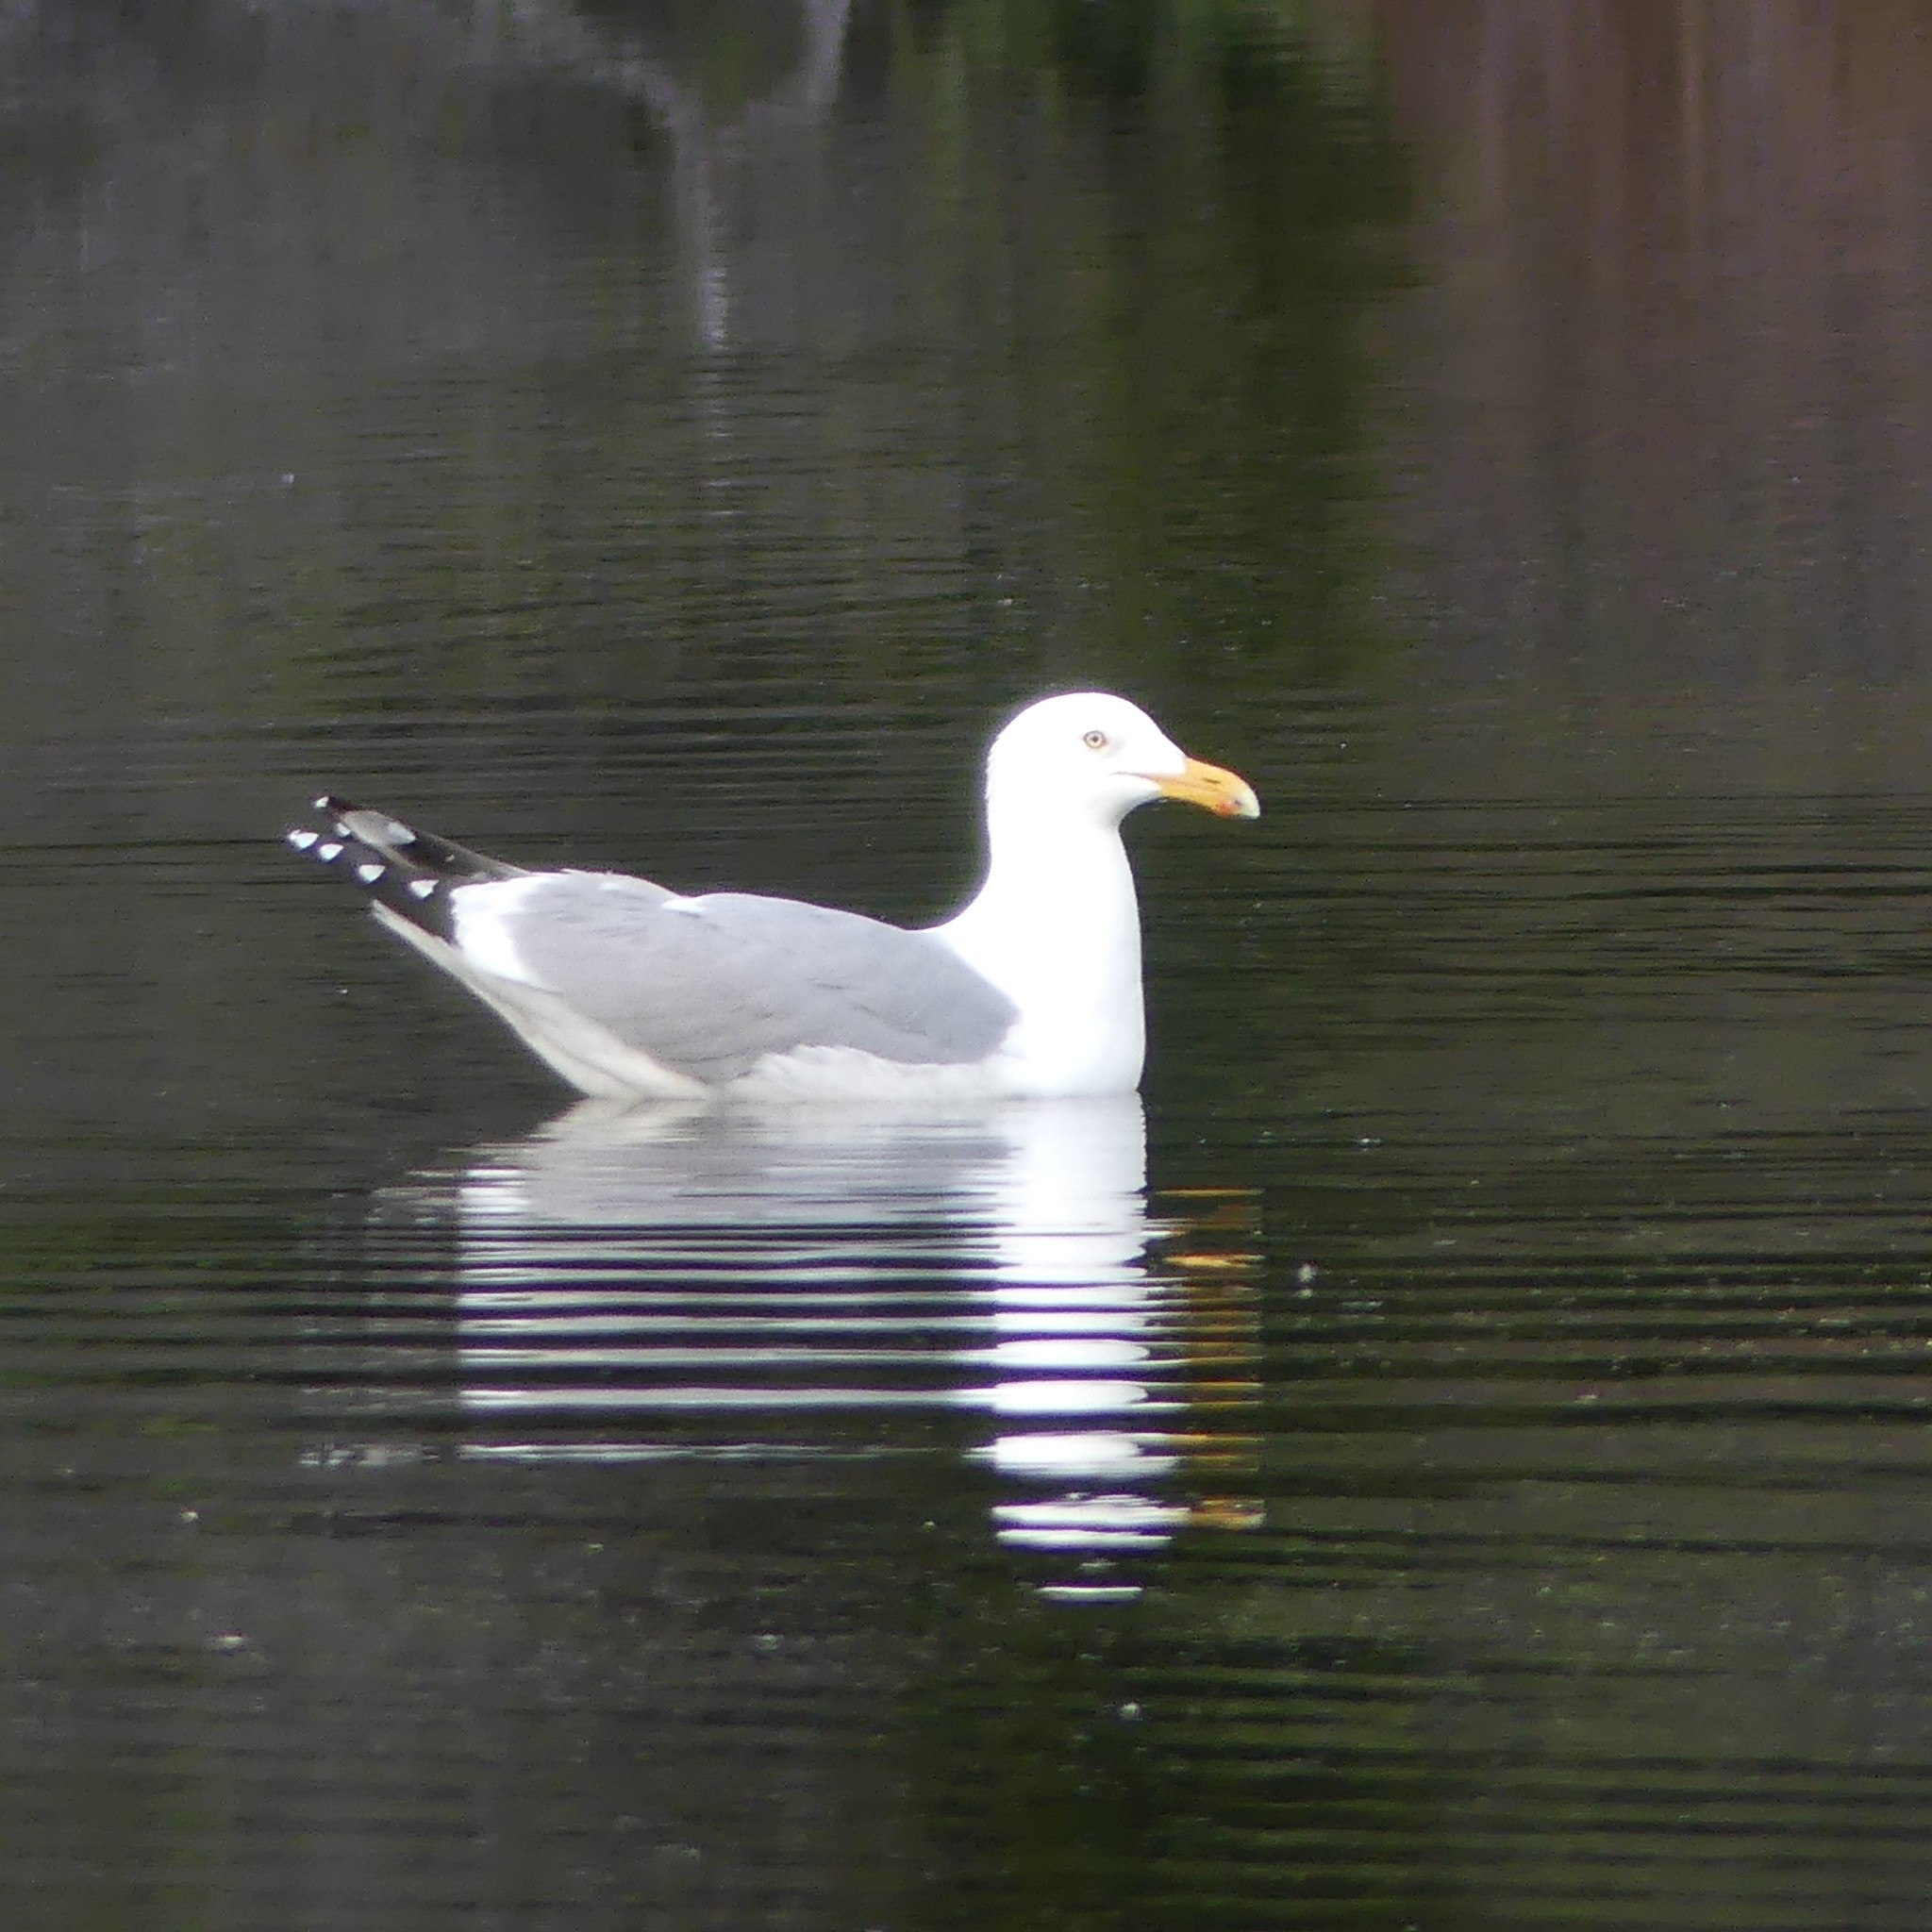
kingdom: Animalia
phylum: Chordata
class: Aves
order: Charadriiformes
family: Laridae
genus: Larus
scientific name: Larus argentatus
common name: Herring gull
